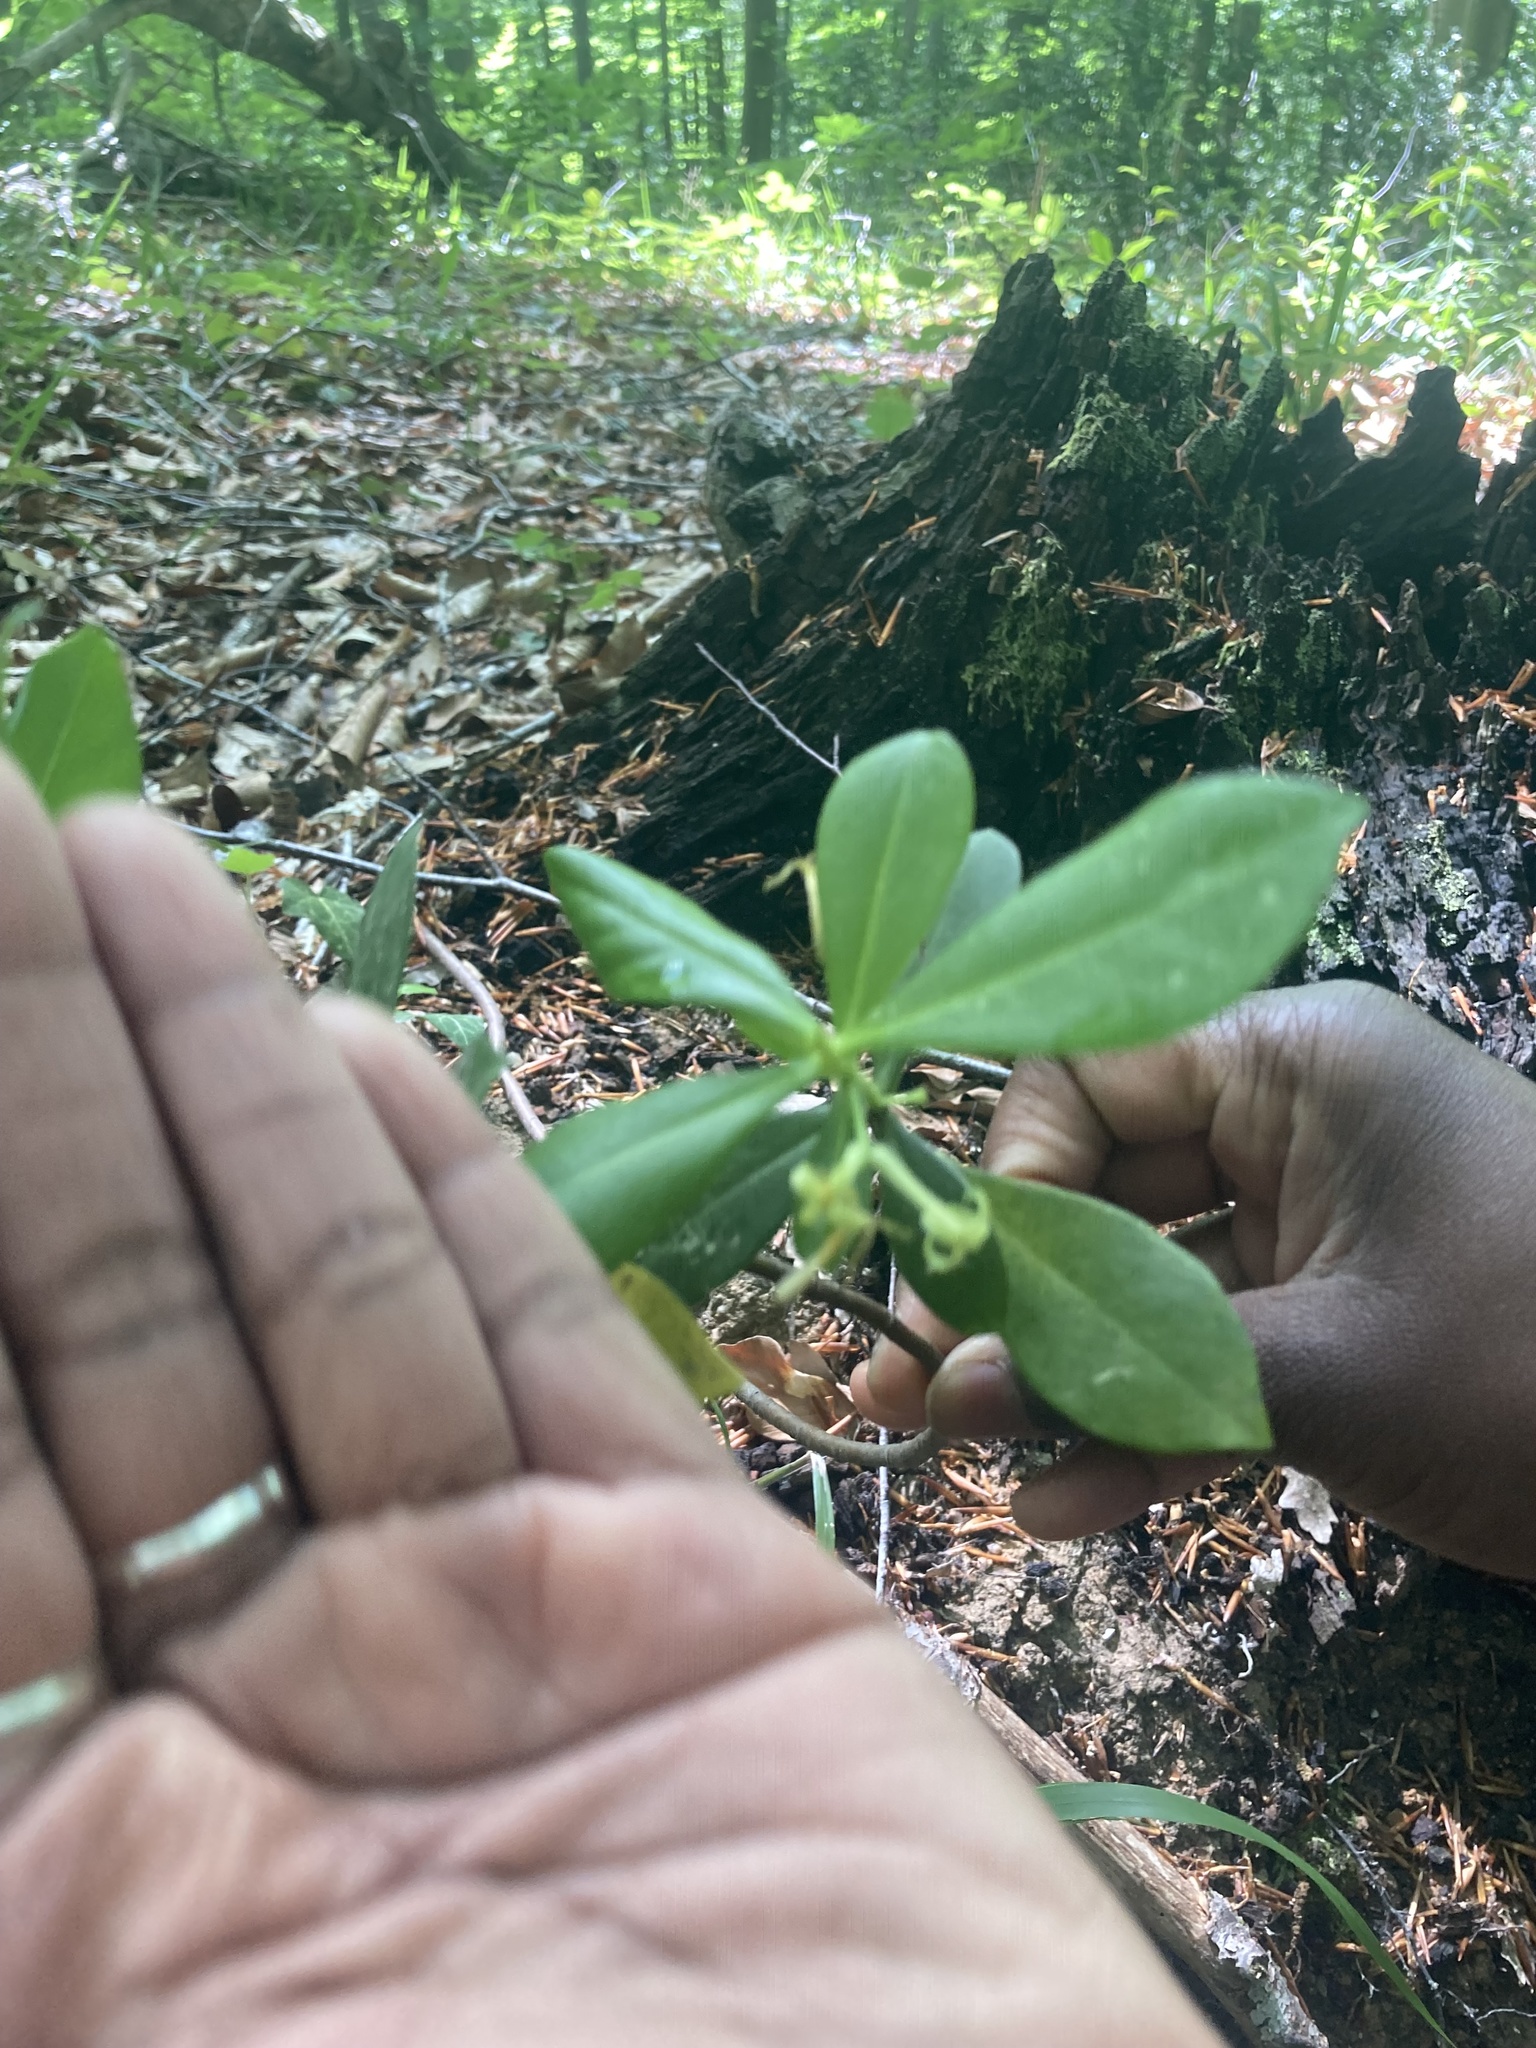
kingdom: Plantae
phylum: Tracheophyta
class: Magnoliopsida
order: Malvales
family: Thymelaeaceae
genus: Daphne
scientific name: Daphne pontica
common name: Twin-flower daphne
